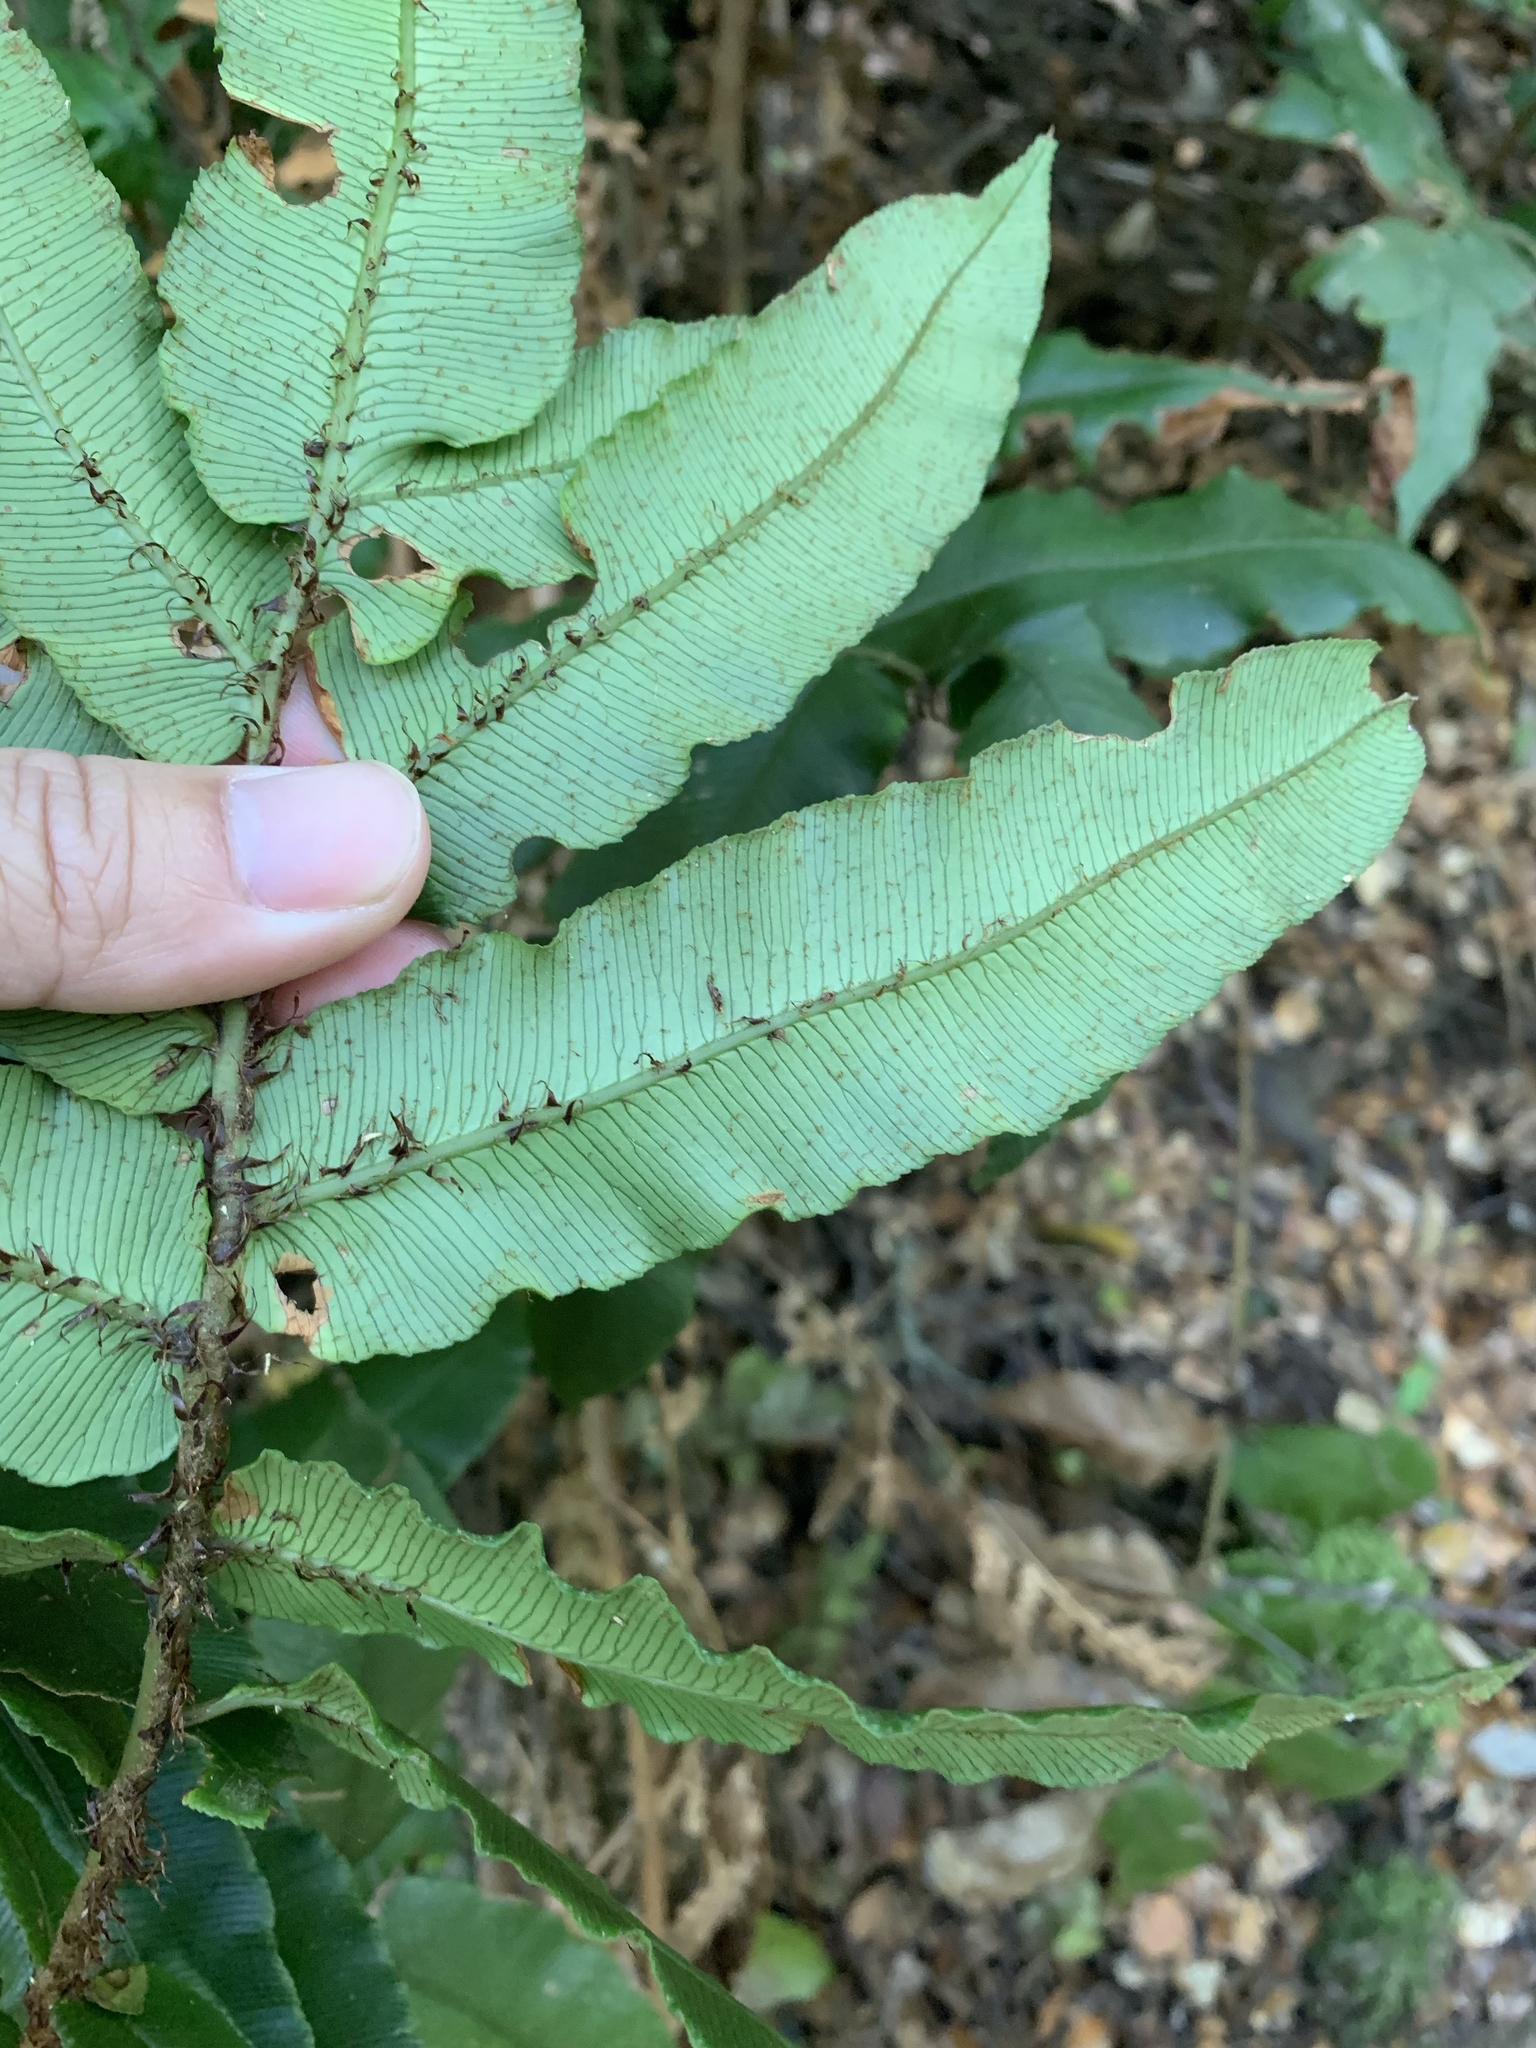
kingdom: Plantae
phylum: Tracheophyta
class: Polypodiopsida
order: Polypodiales
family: Blechnaceae
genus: Parablechnum
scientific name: Parablechnum wattsii
